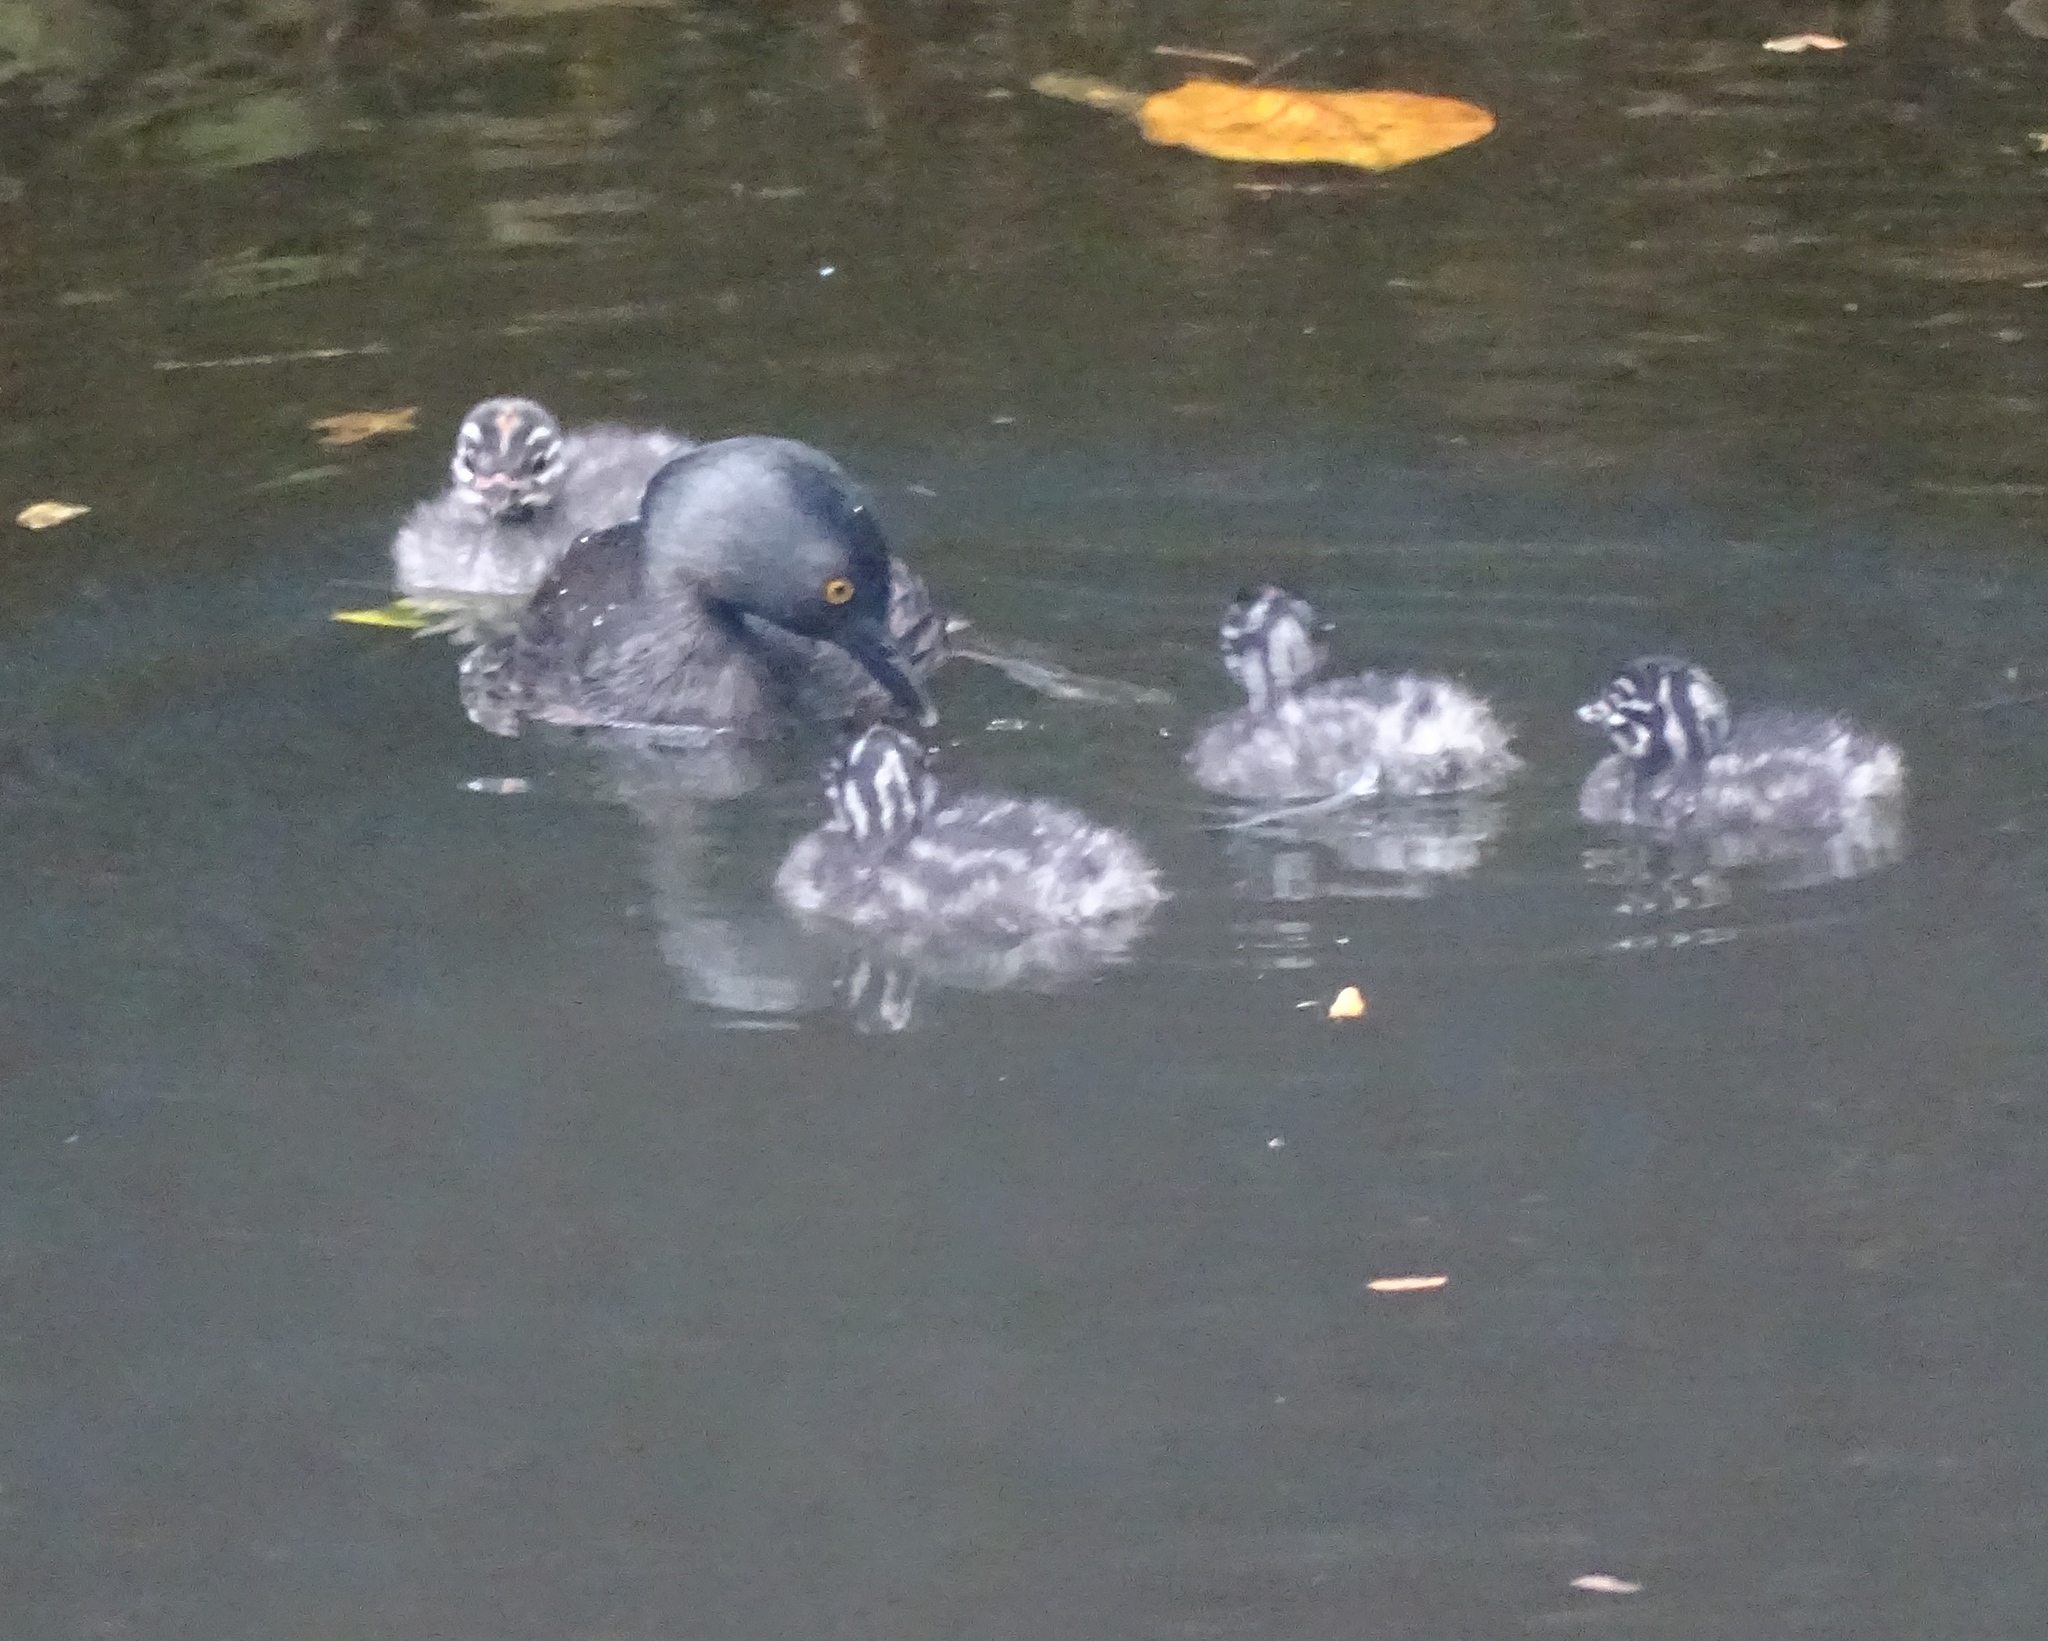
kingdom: Animalia
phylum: Chordata
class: Aves
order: Podicipediformes
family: Podicipedidae
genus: Tachybaptus
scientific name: Tachybaptus dominicus
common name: Least grebe
